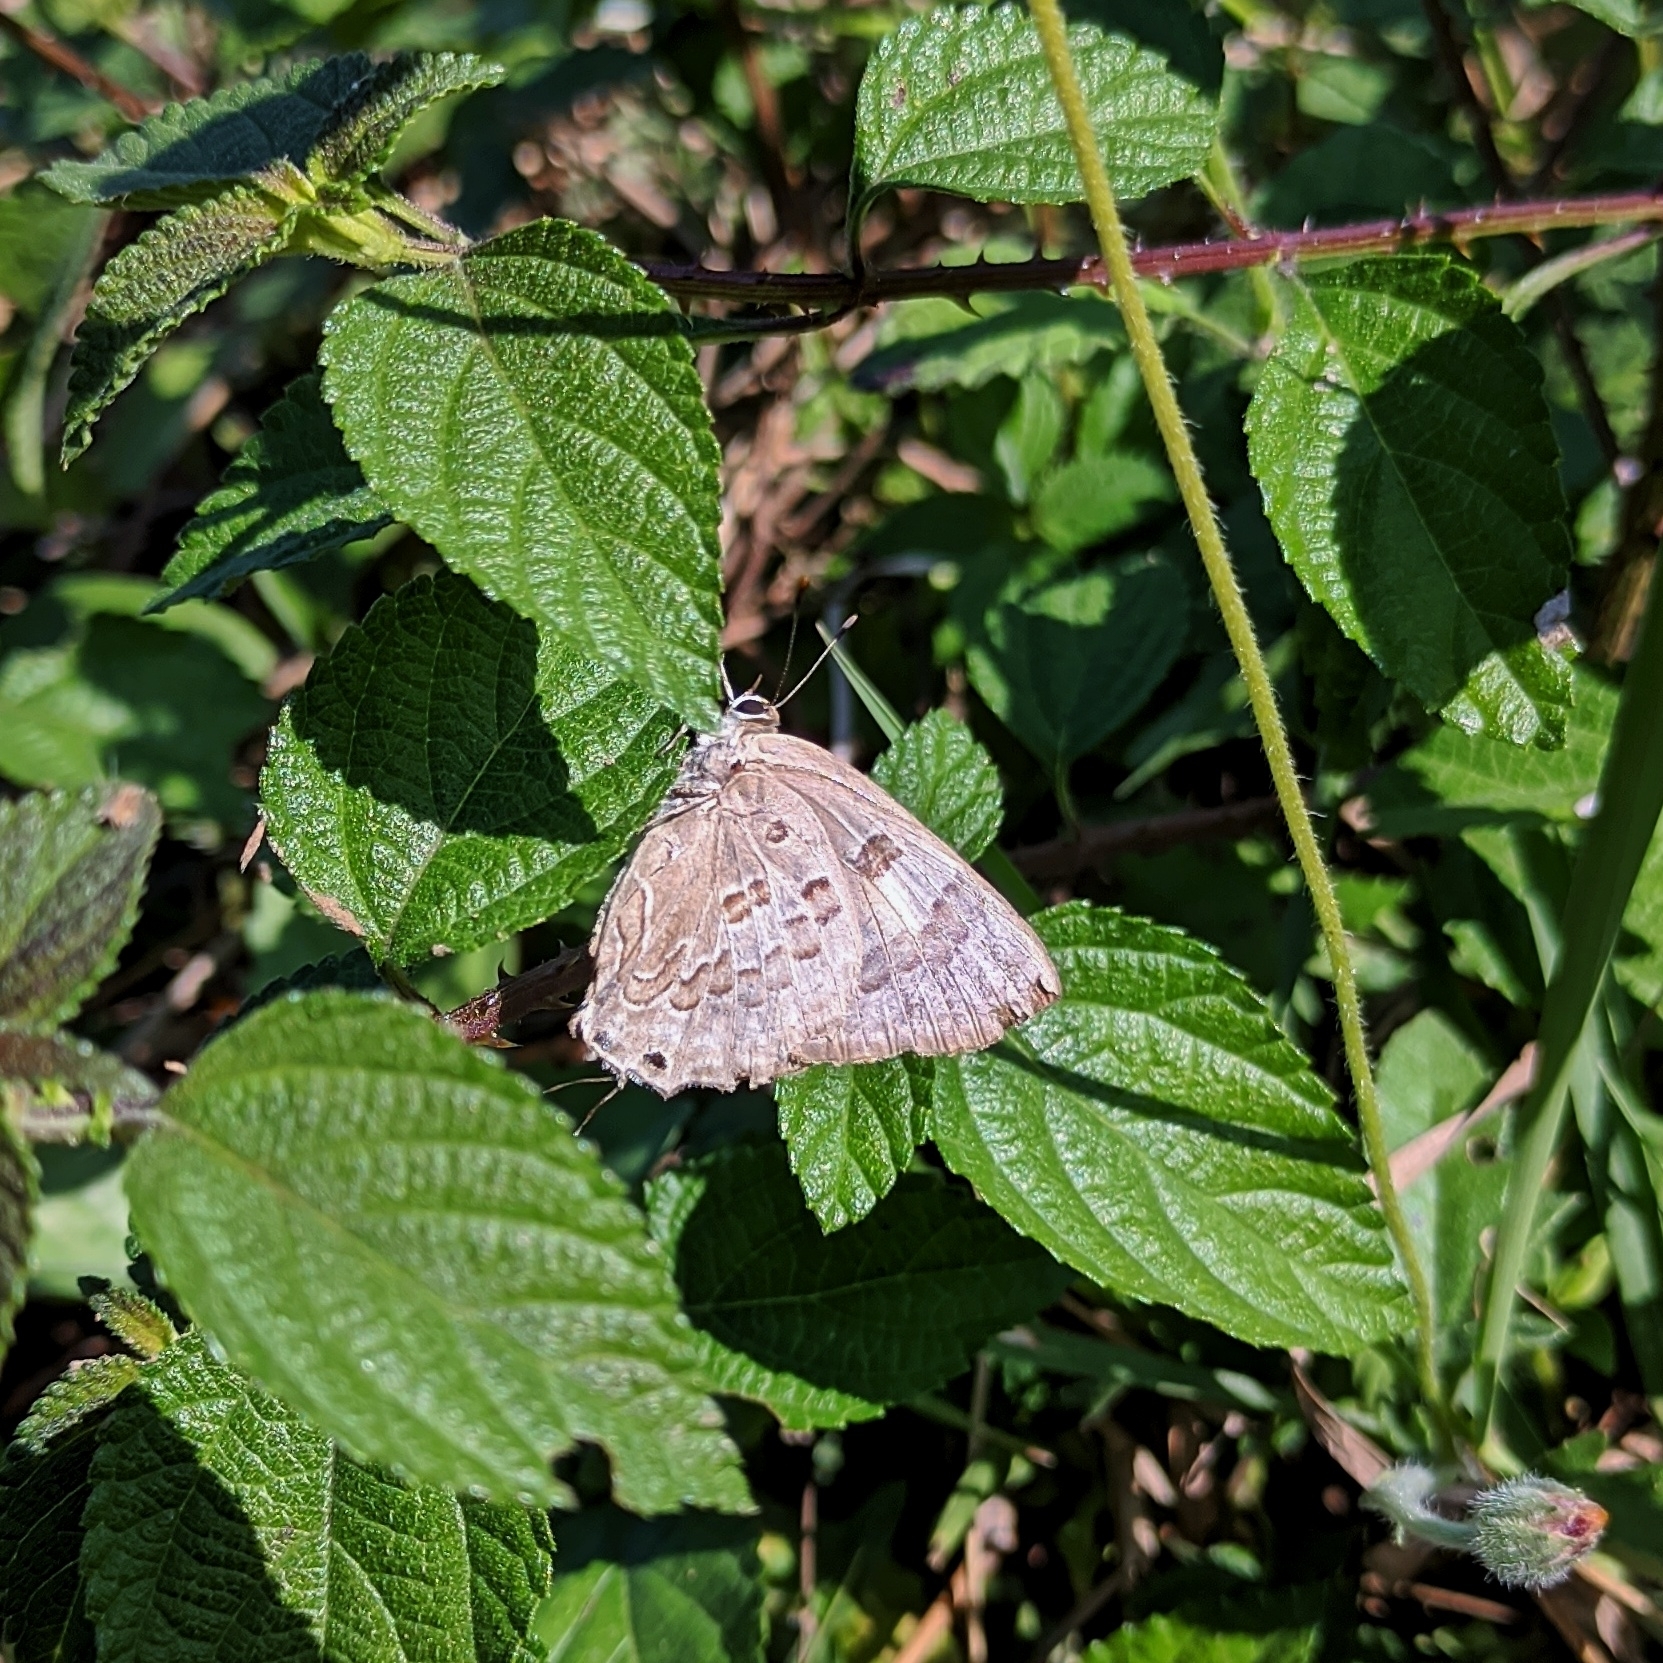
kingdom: Animalia
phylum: Arthropoda
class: Insecta
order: Lepidoptera
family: Lycaenidae
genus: Deudorix
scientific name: Deudorix
